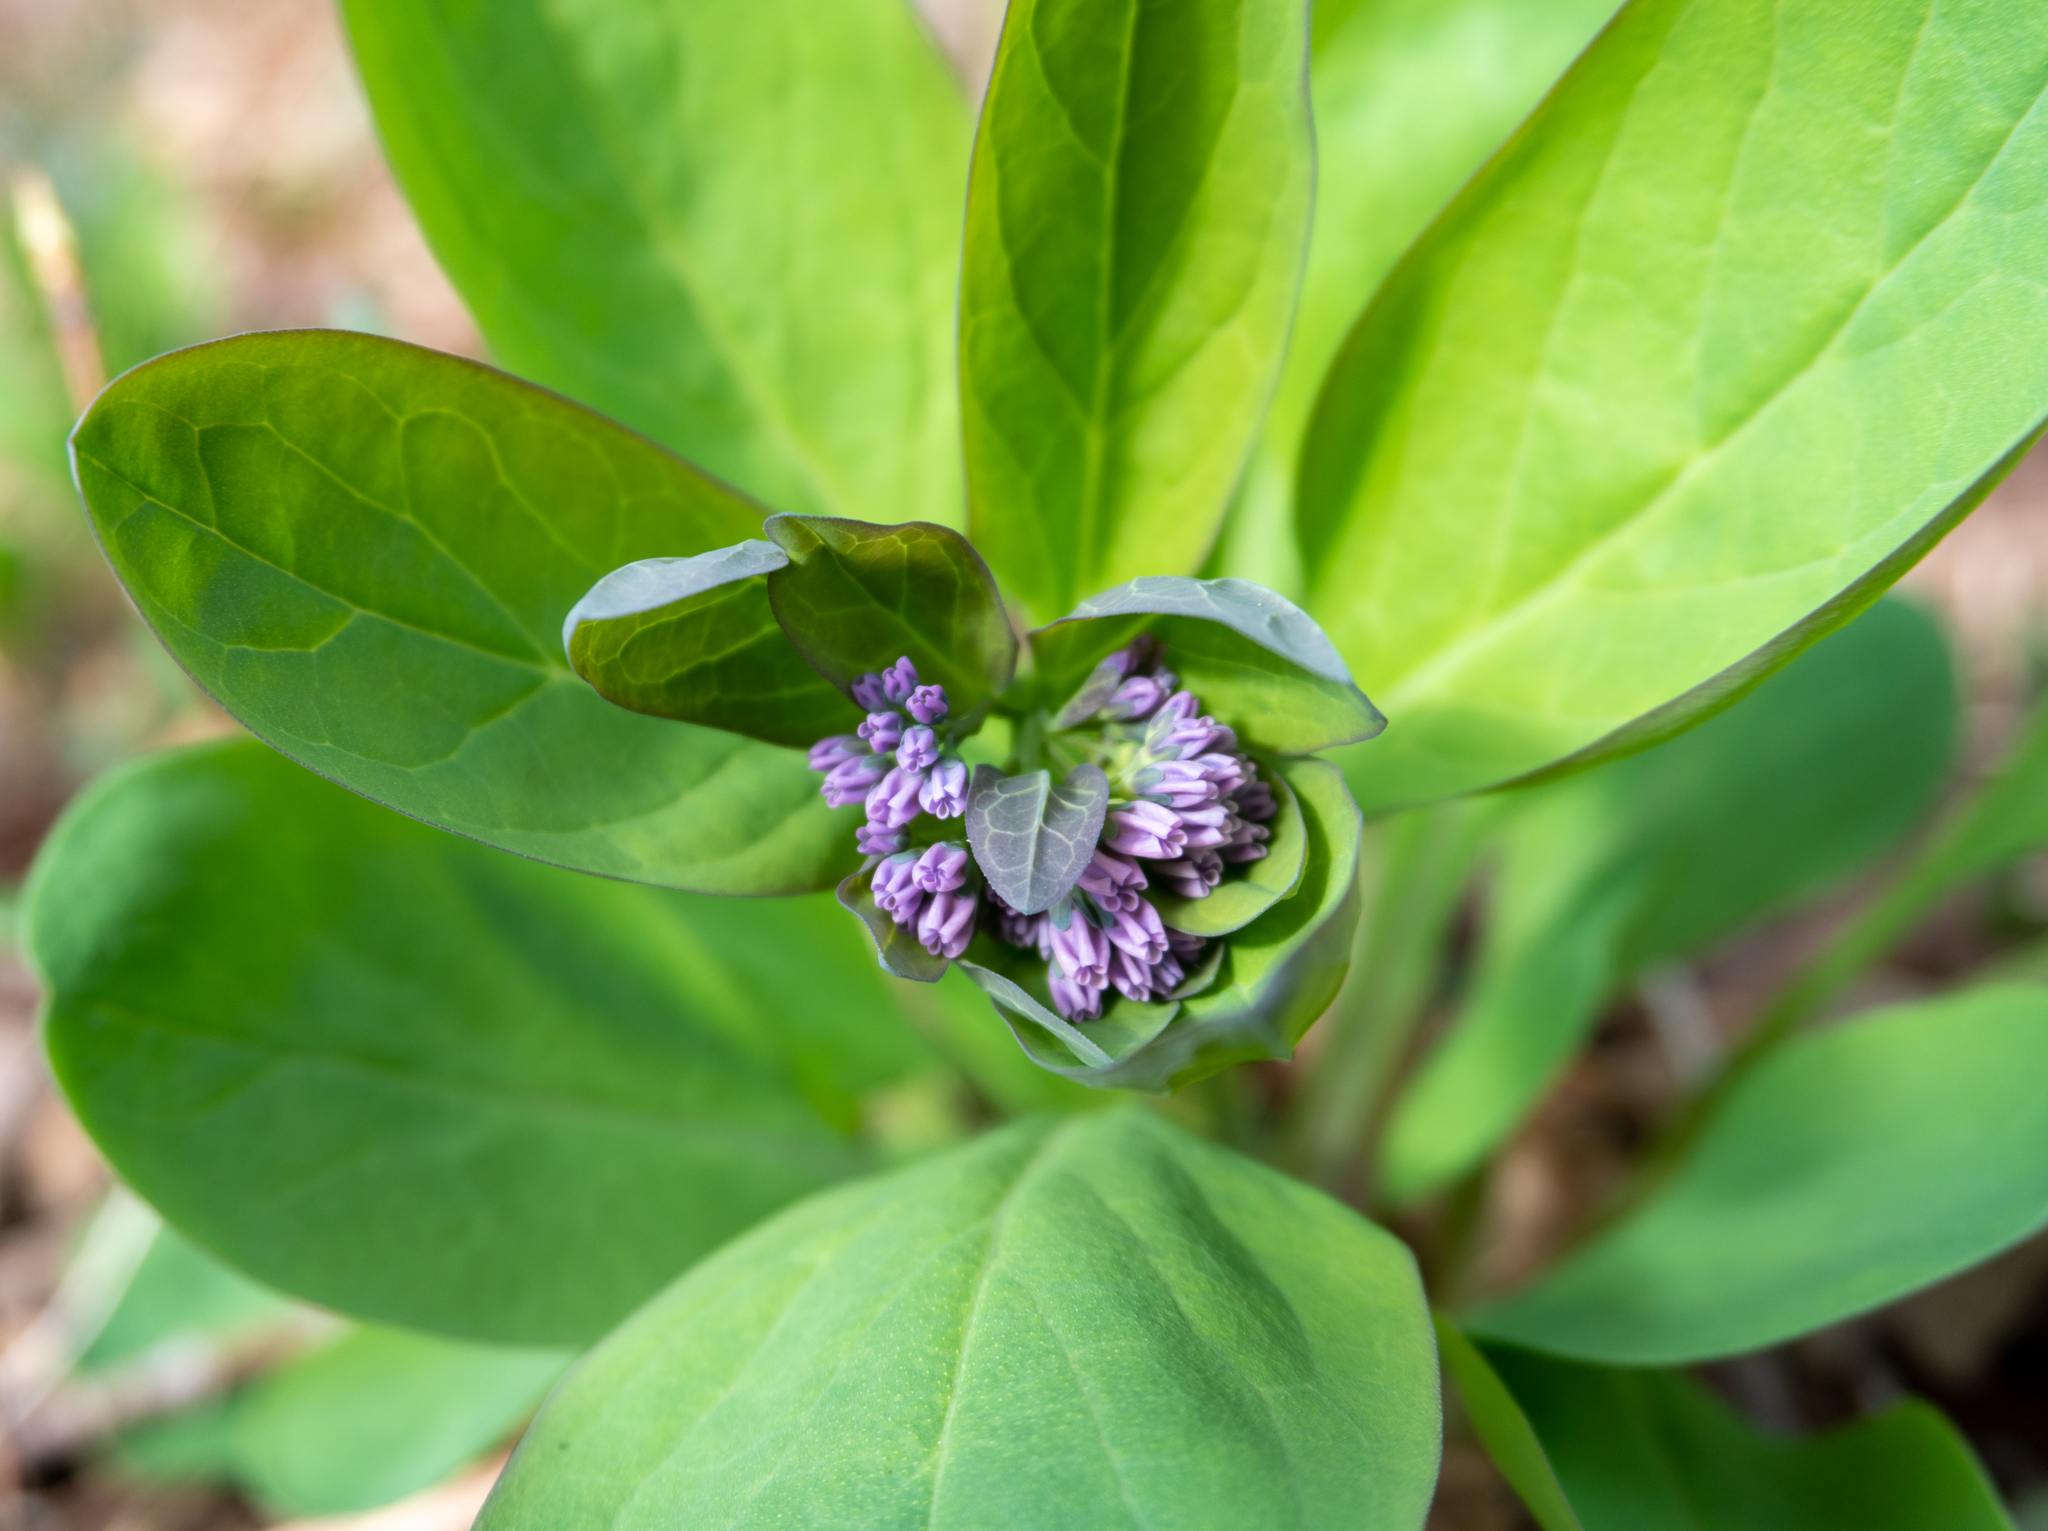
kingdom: Plantae
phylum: Tracheophyta
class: Magnoliopsida
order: Boraginales
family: Boraginaceae
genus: Mertensia
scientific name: Mertensia virginica
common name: Virginia bluebells
